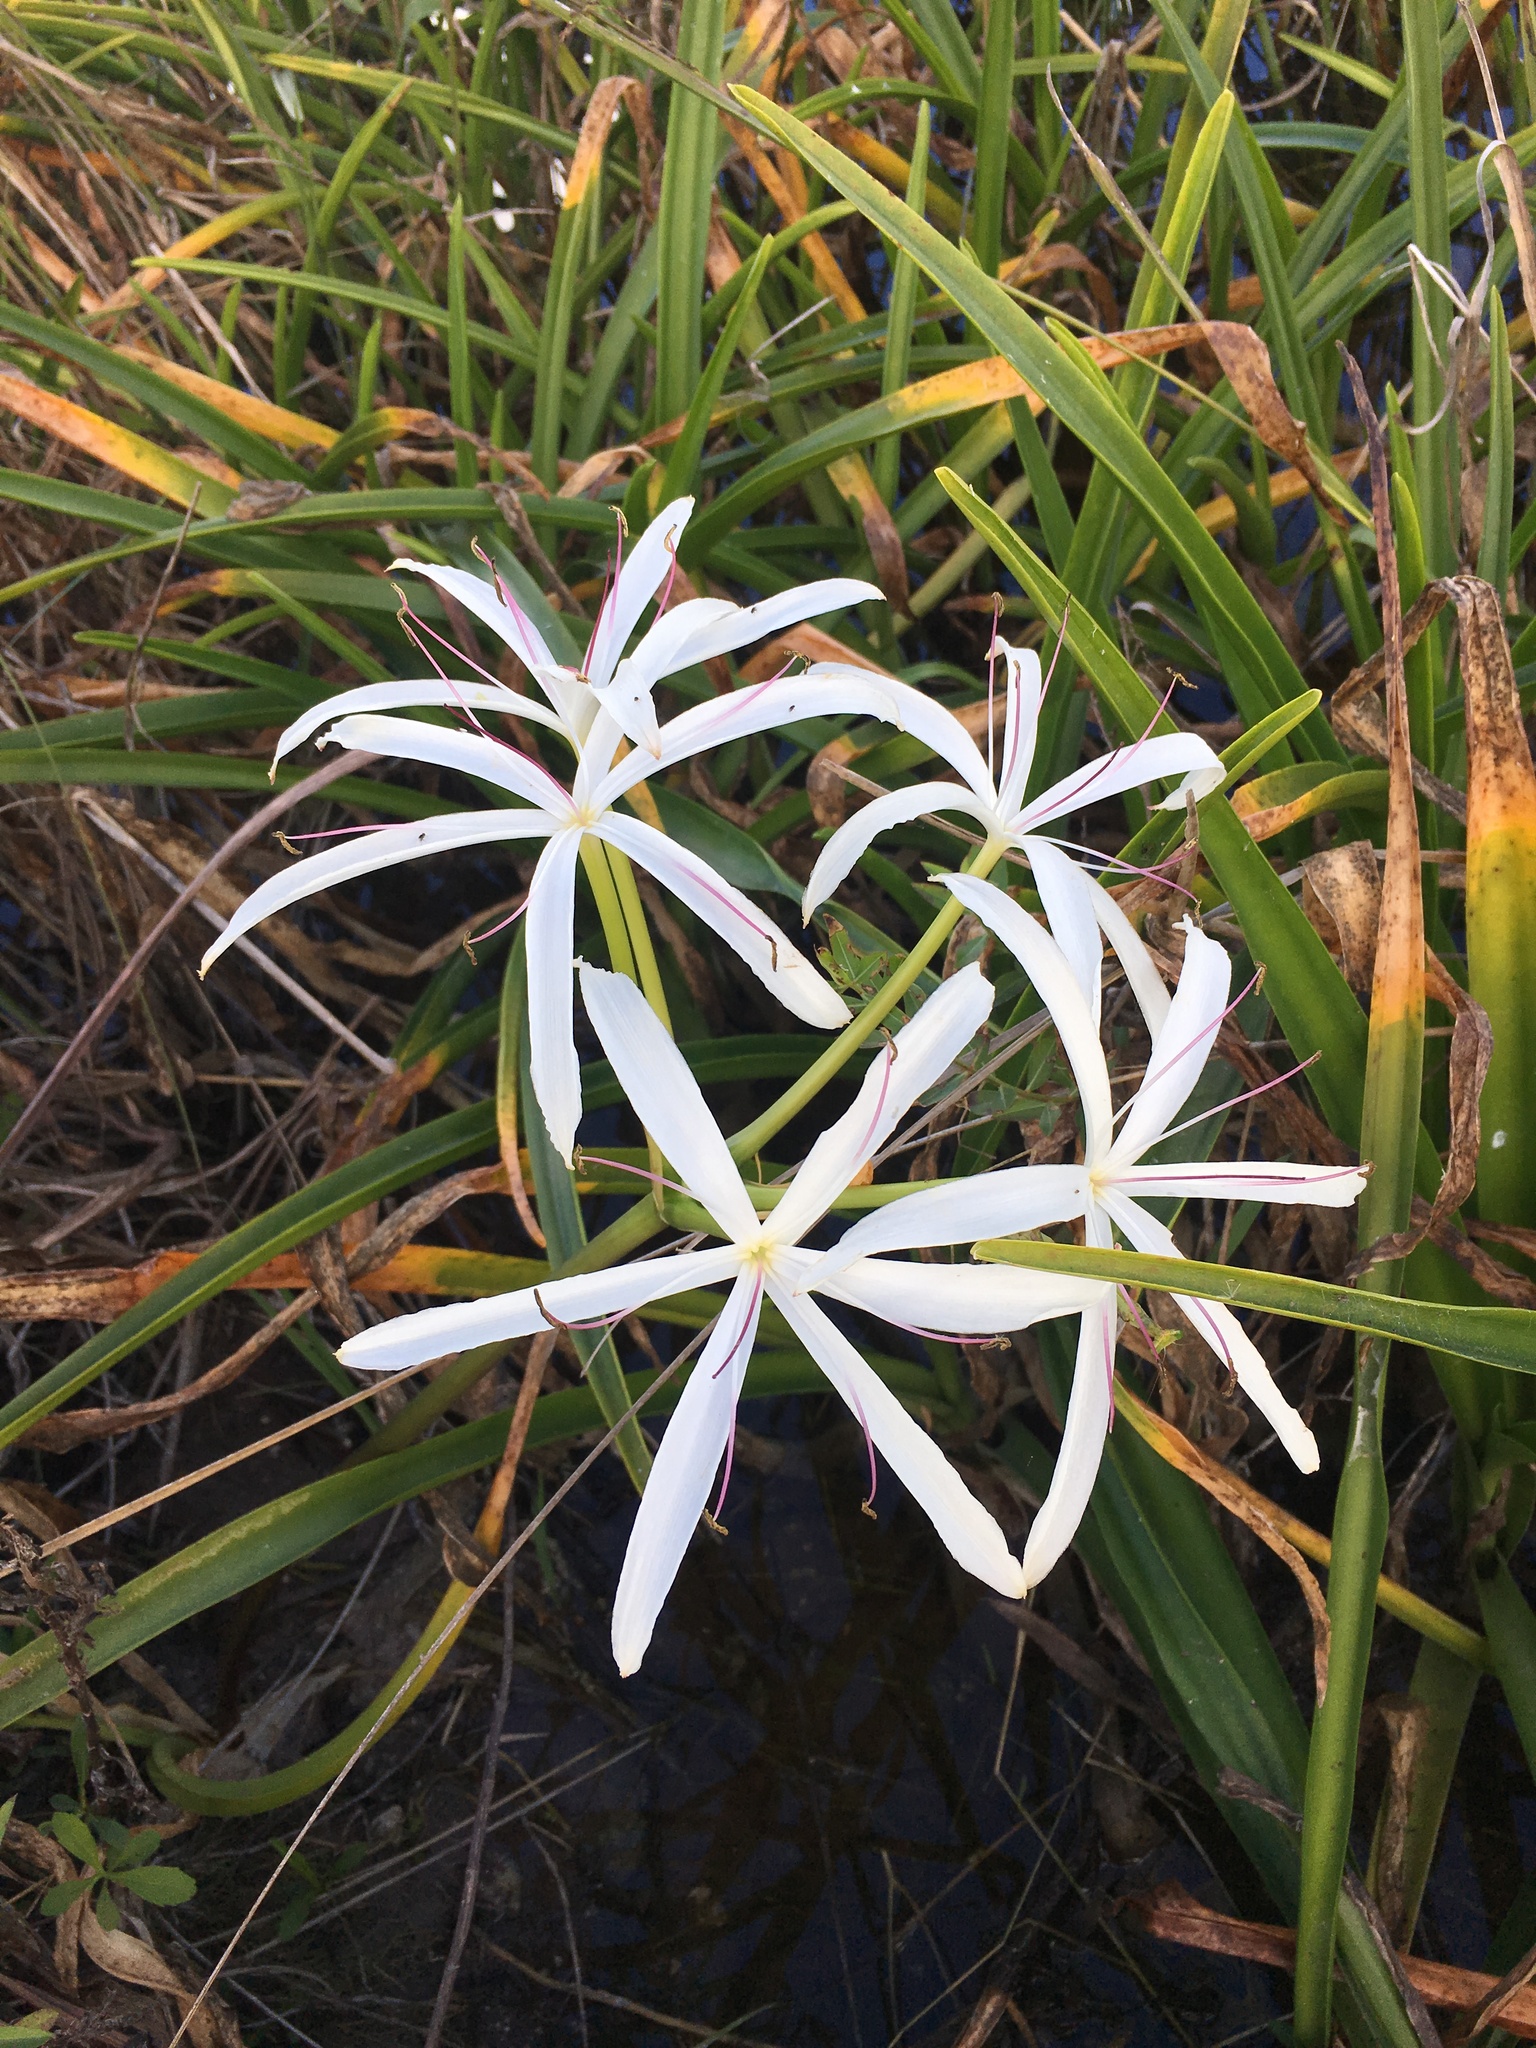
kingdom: Plantae
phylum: Tracheophyta
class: Liliopsida
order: Asparagales
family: Amaryllidaceae
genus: Crinum
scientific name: Crinum americanum
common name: Florida swamp-lily
